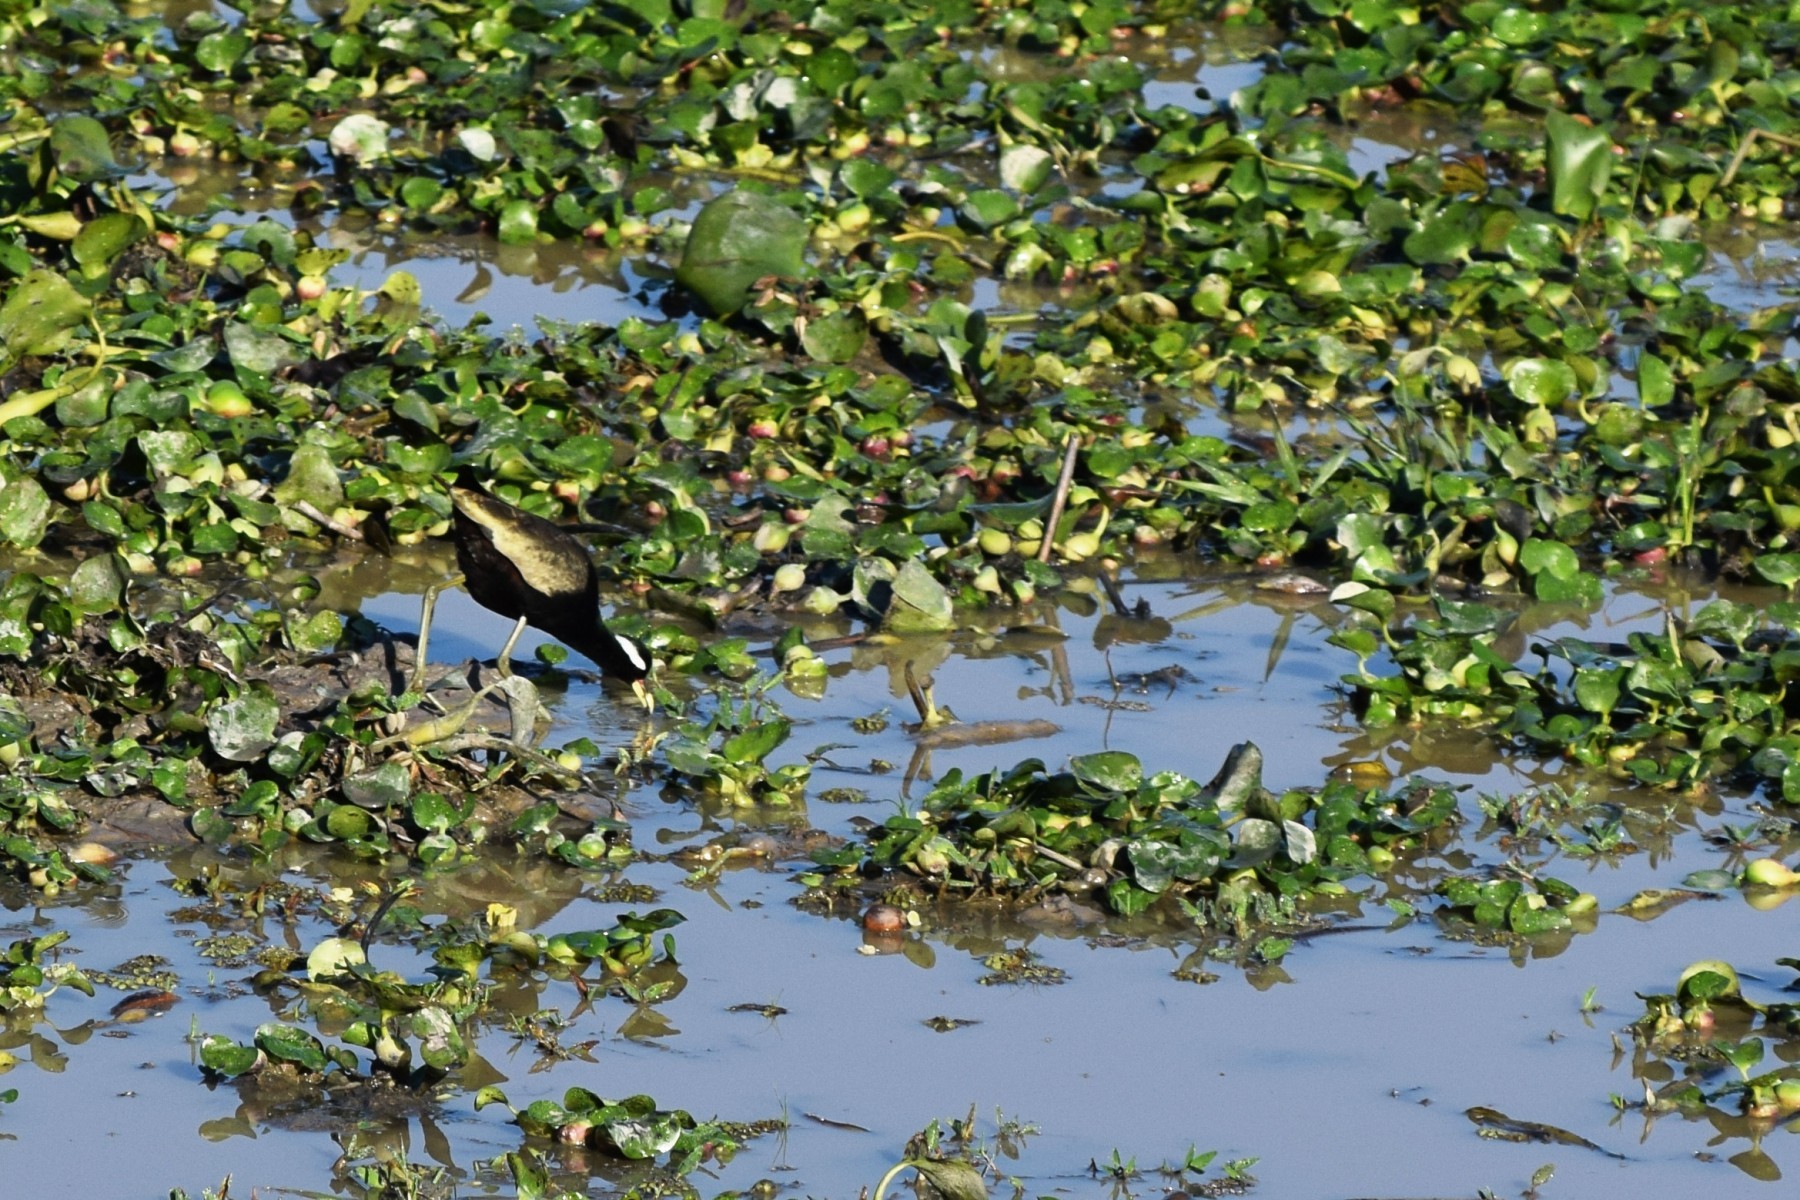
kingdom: Animalia
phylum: Chordata
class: Aves
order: Charadriiformes
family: Jacanidae
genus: Metopidius
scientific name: Metopidius indicus
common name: Bronze-winged jacana
